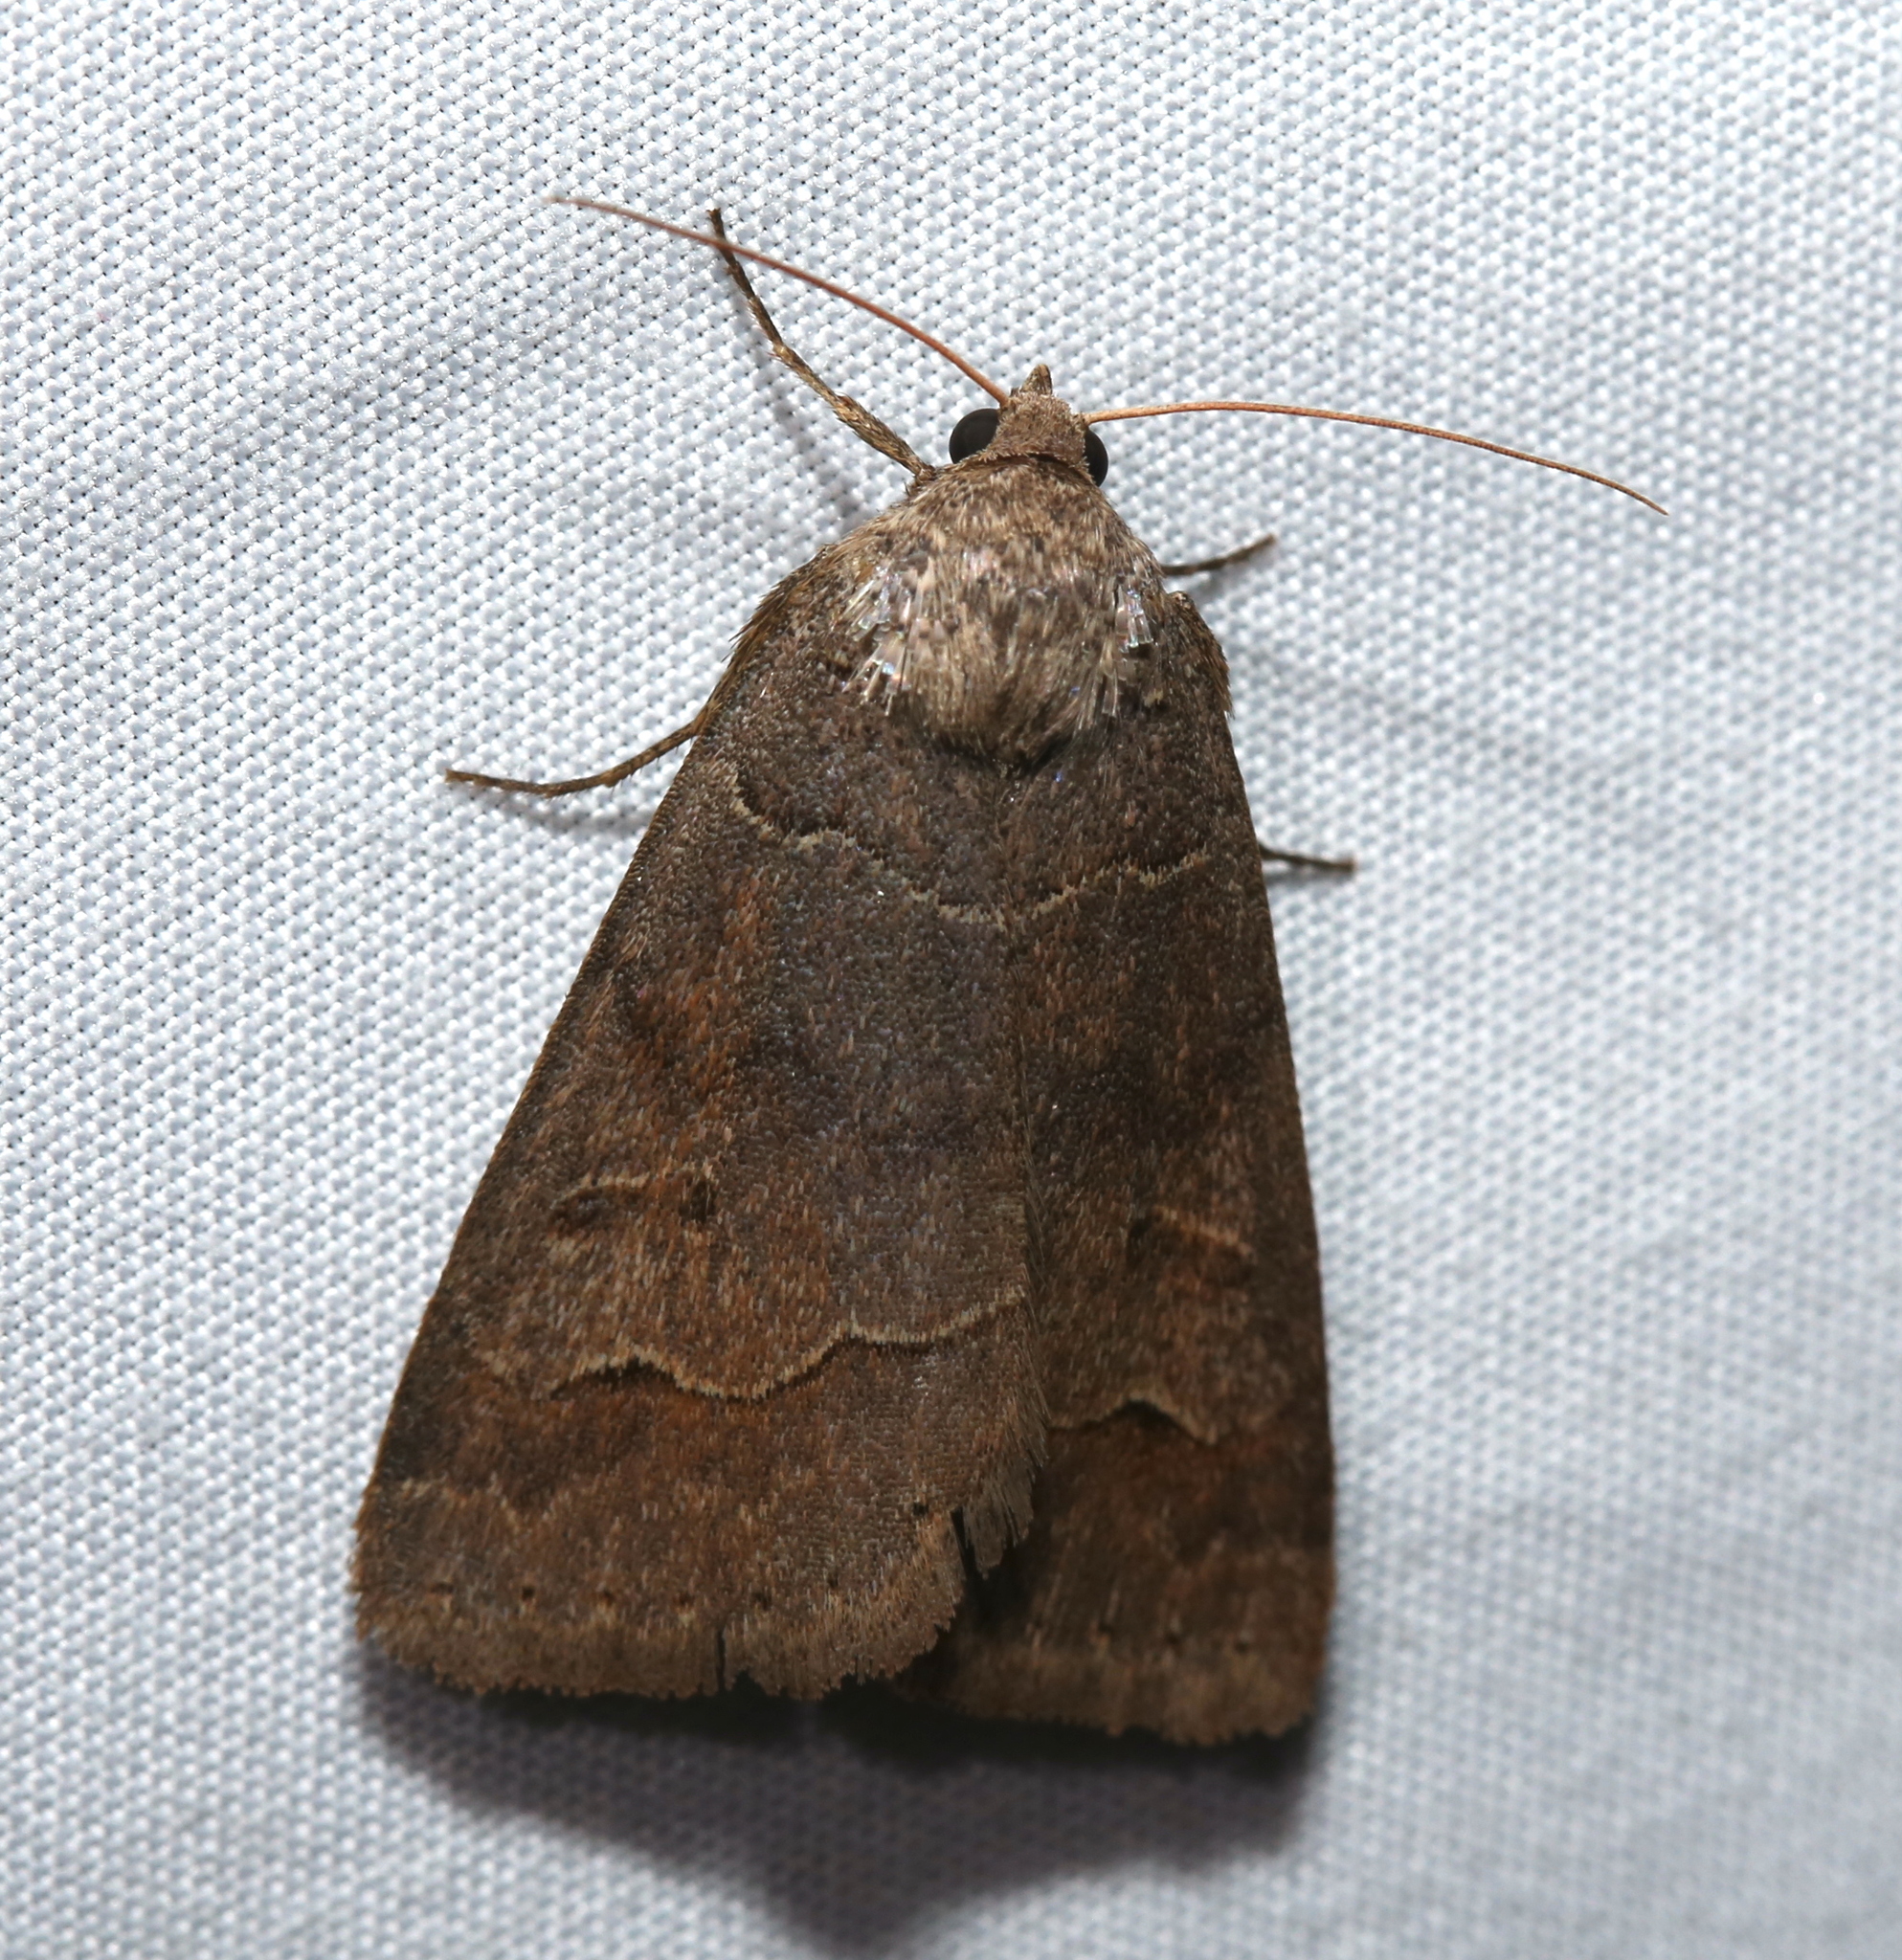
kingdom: Animalia
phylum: Arthropoda
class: Insecta
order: Lepidoptera
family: Erebidae
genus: Phoberia
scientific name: Phoberia atomaris
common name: Common oak moth
